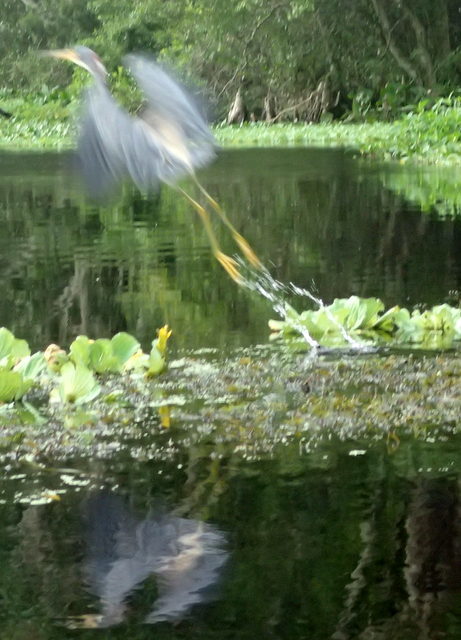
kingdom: Animalia
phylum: Chordata
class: Aves
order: Pelecaniformes
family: Ardeidae
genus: Egretta
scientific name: Egretta tricolor
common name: Tricolored heron
